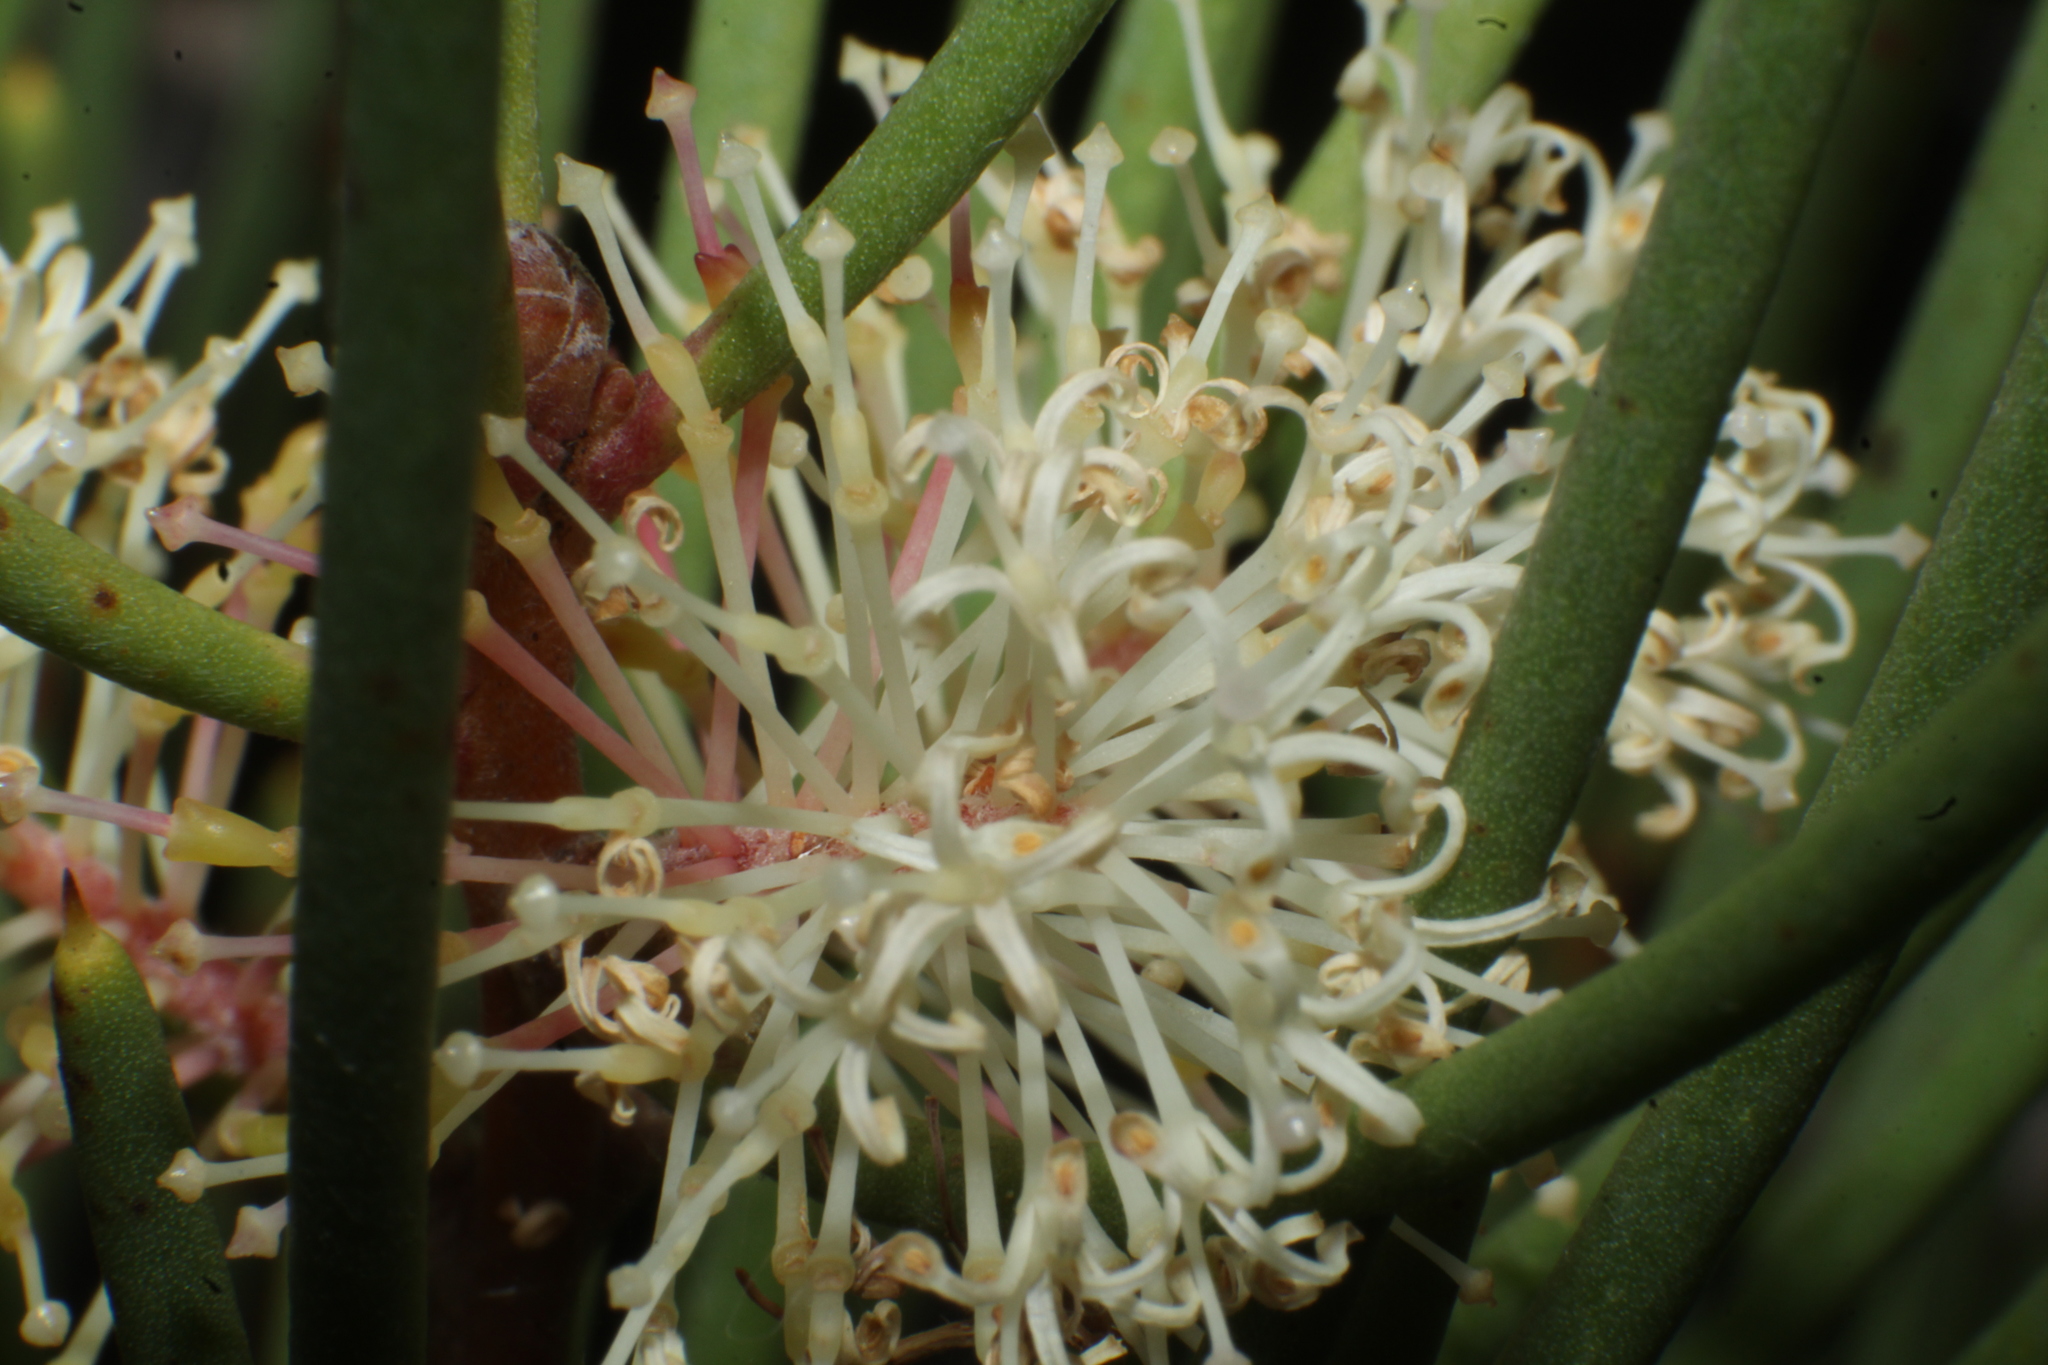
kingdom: Plantae
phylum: Tracheophyta
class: Magnoliopsida
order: Proteales
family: Proteaceae
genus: Hakea
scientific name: Hakea drupacea
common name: Sweet hakea
